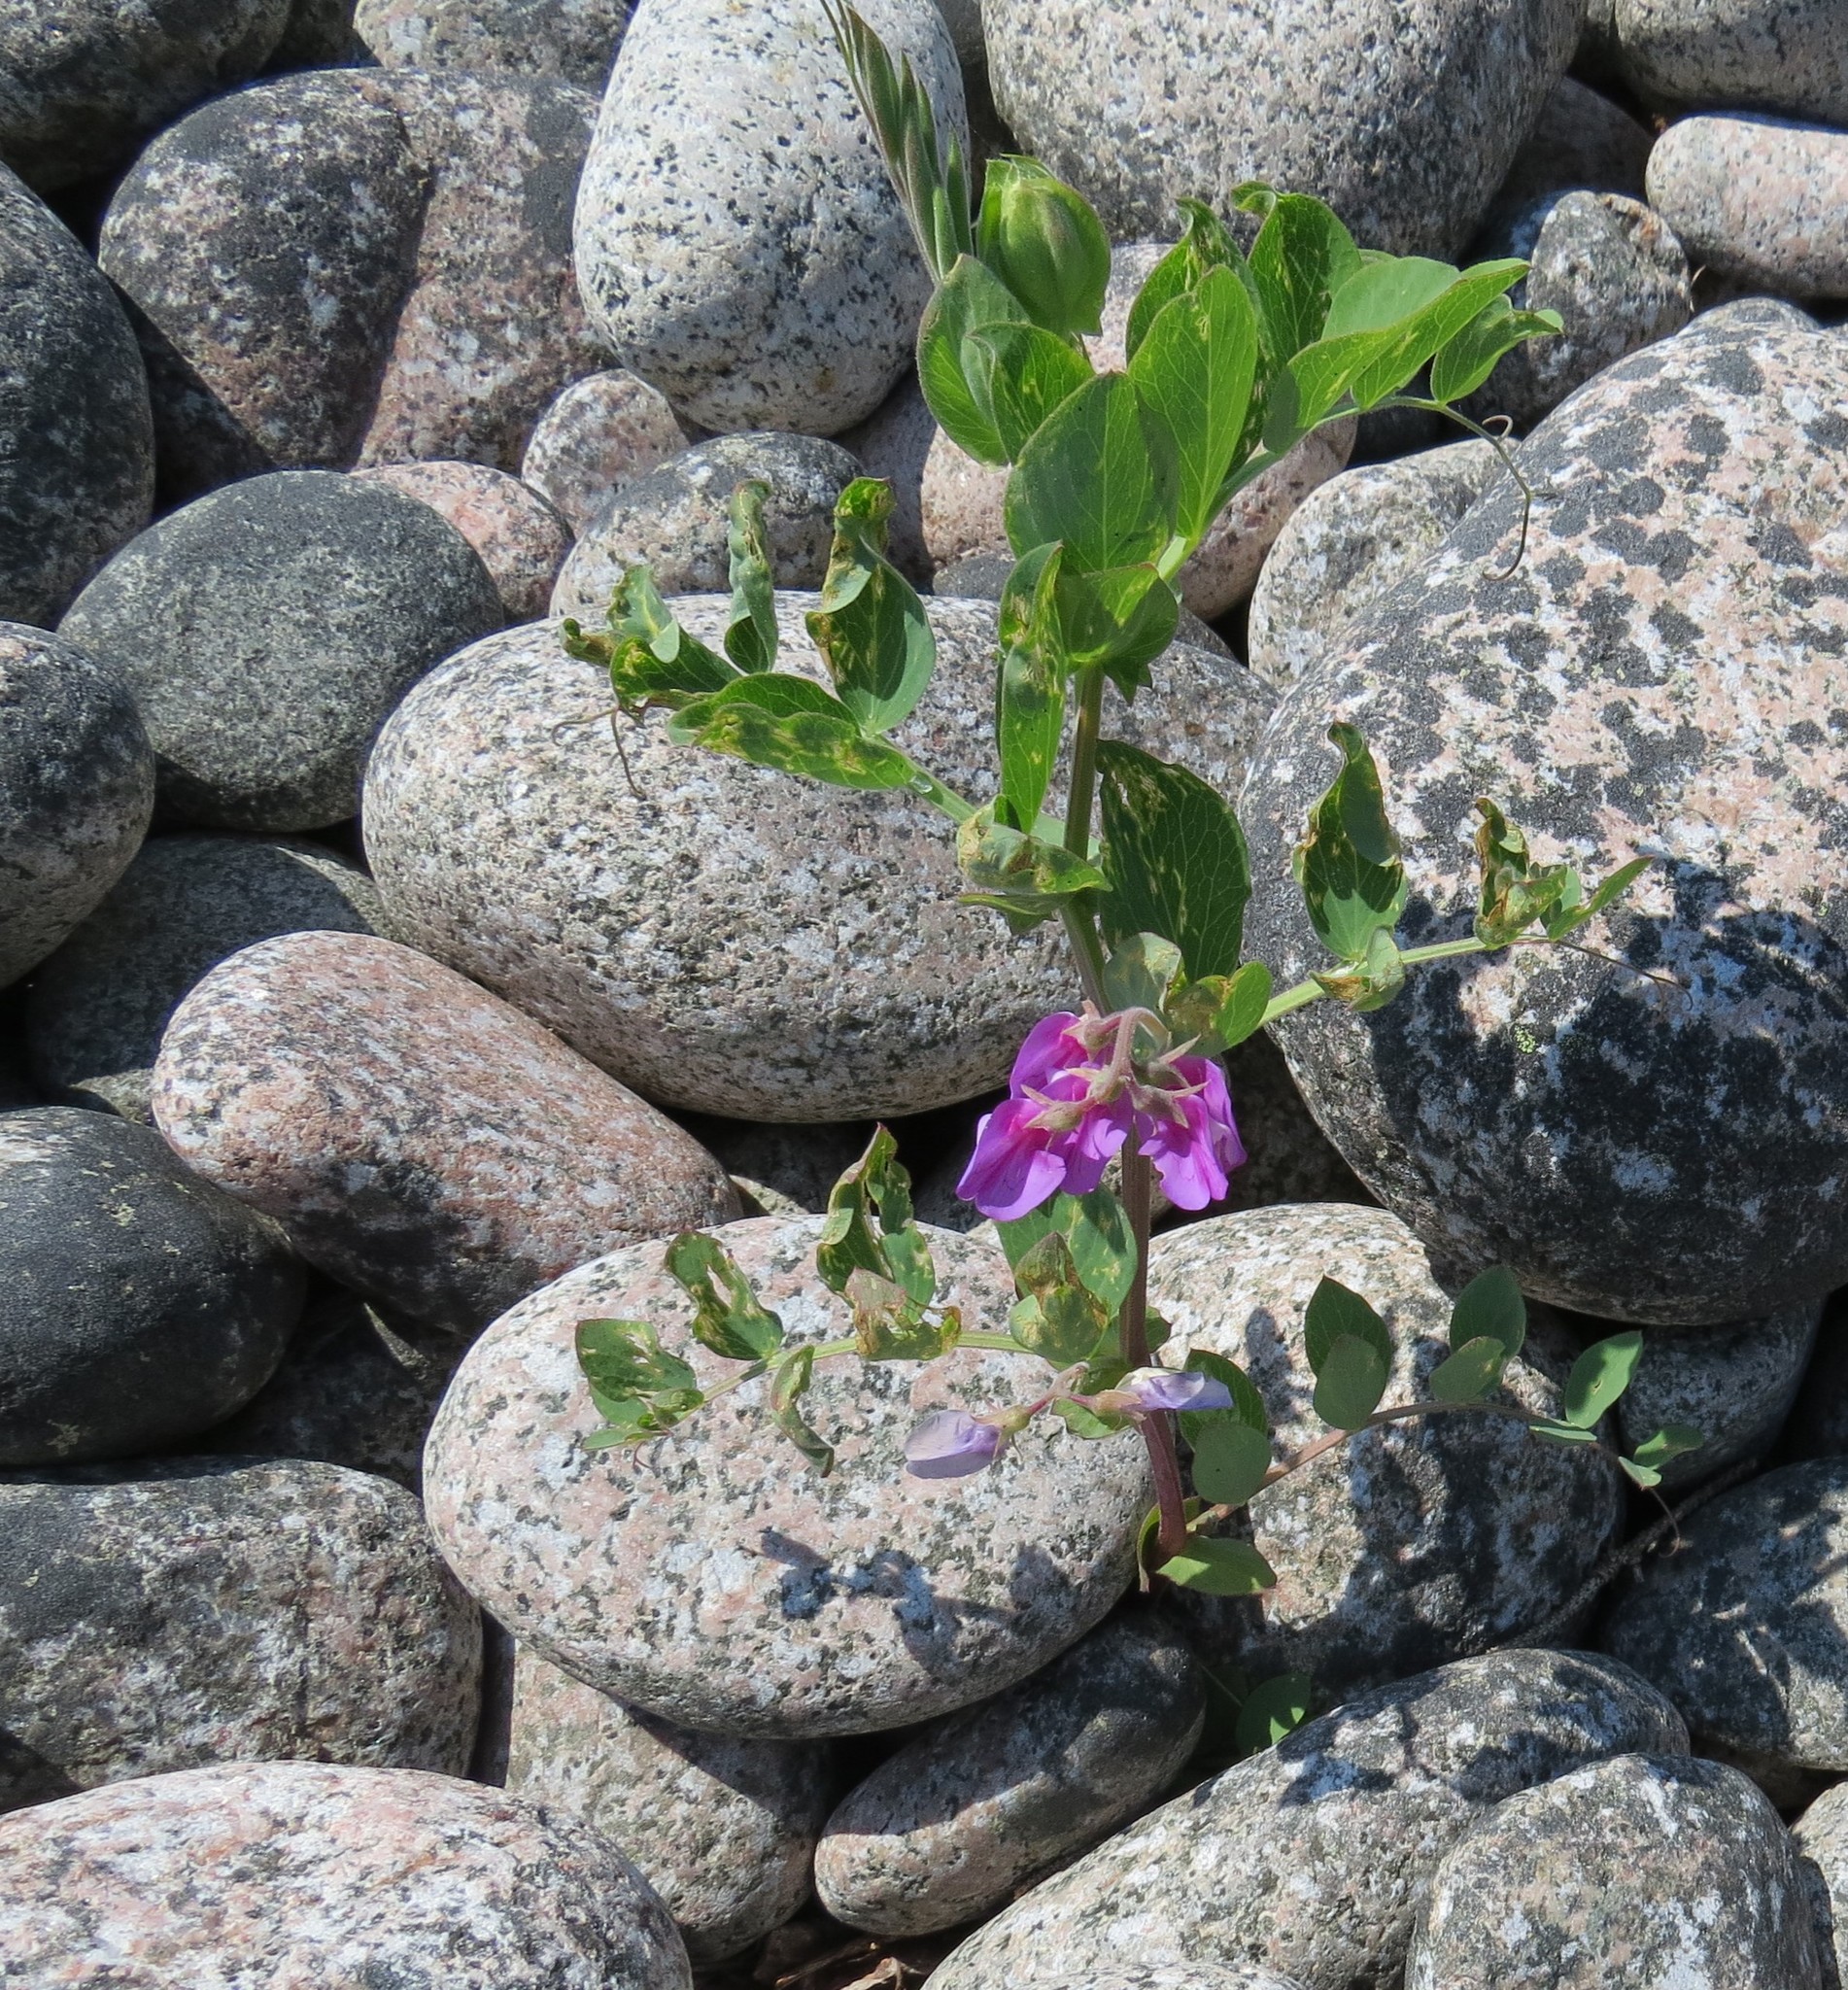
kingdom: Plantae
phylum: Tracheophyta
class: Magnoliopsida
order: Fabales
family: Fabaceae
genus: Lathyrus
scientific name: Lathyrus japonicus
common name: Sea pea
